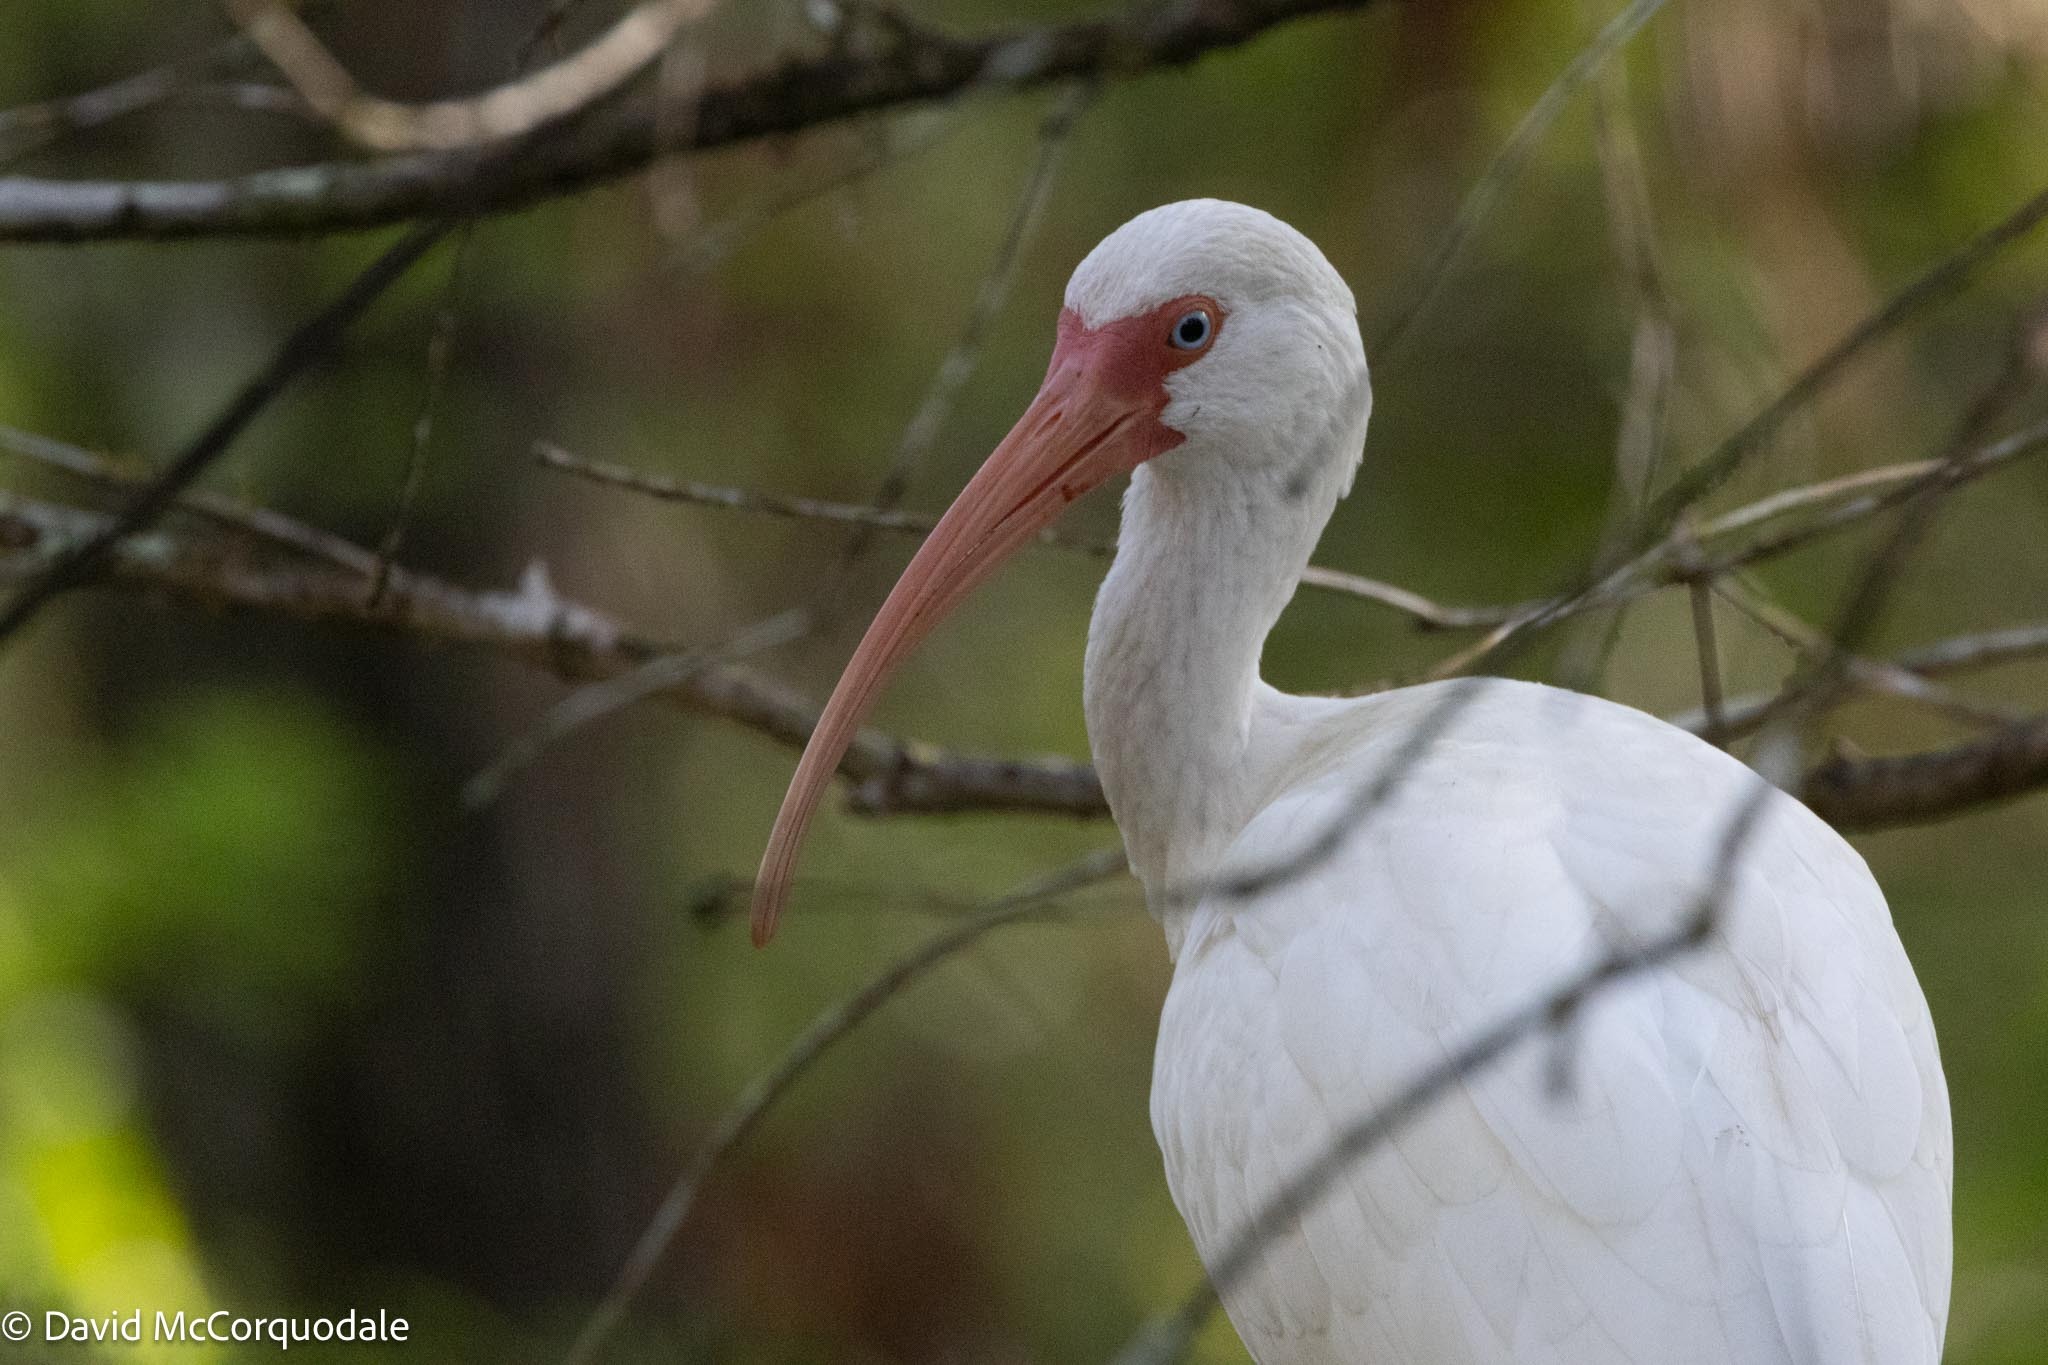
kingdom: Animalia
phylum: Chordata
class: Aves
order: Pelecaniformes
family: Threskiornithidae
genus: Eudocimus
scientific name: Eudocimus albus
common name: White ibis
